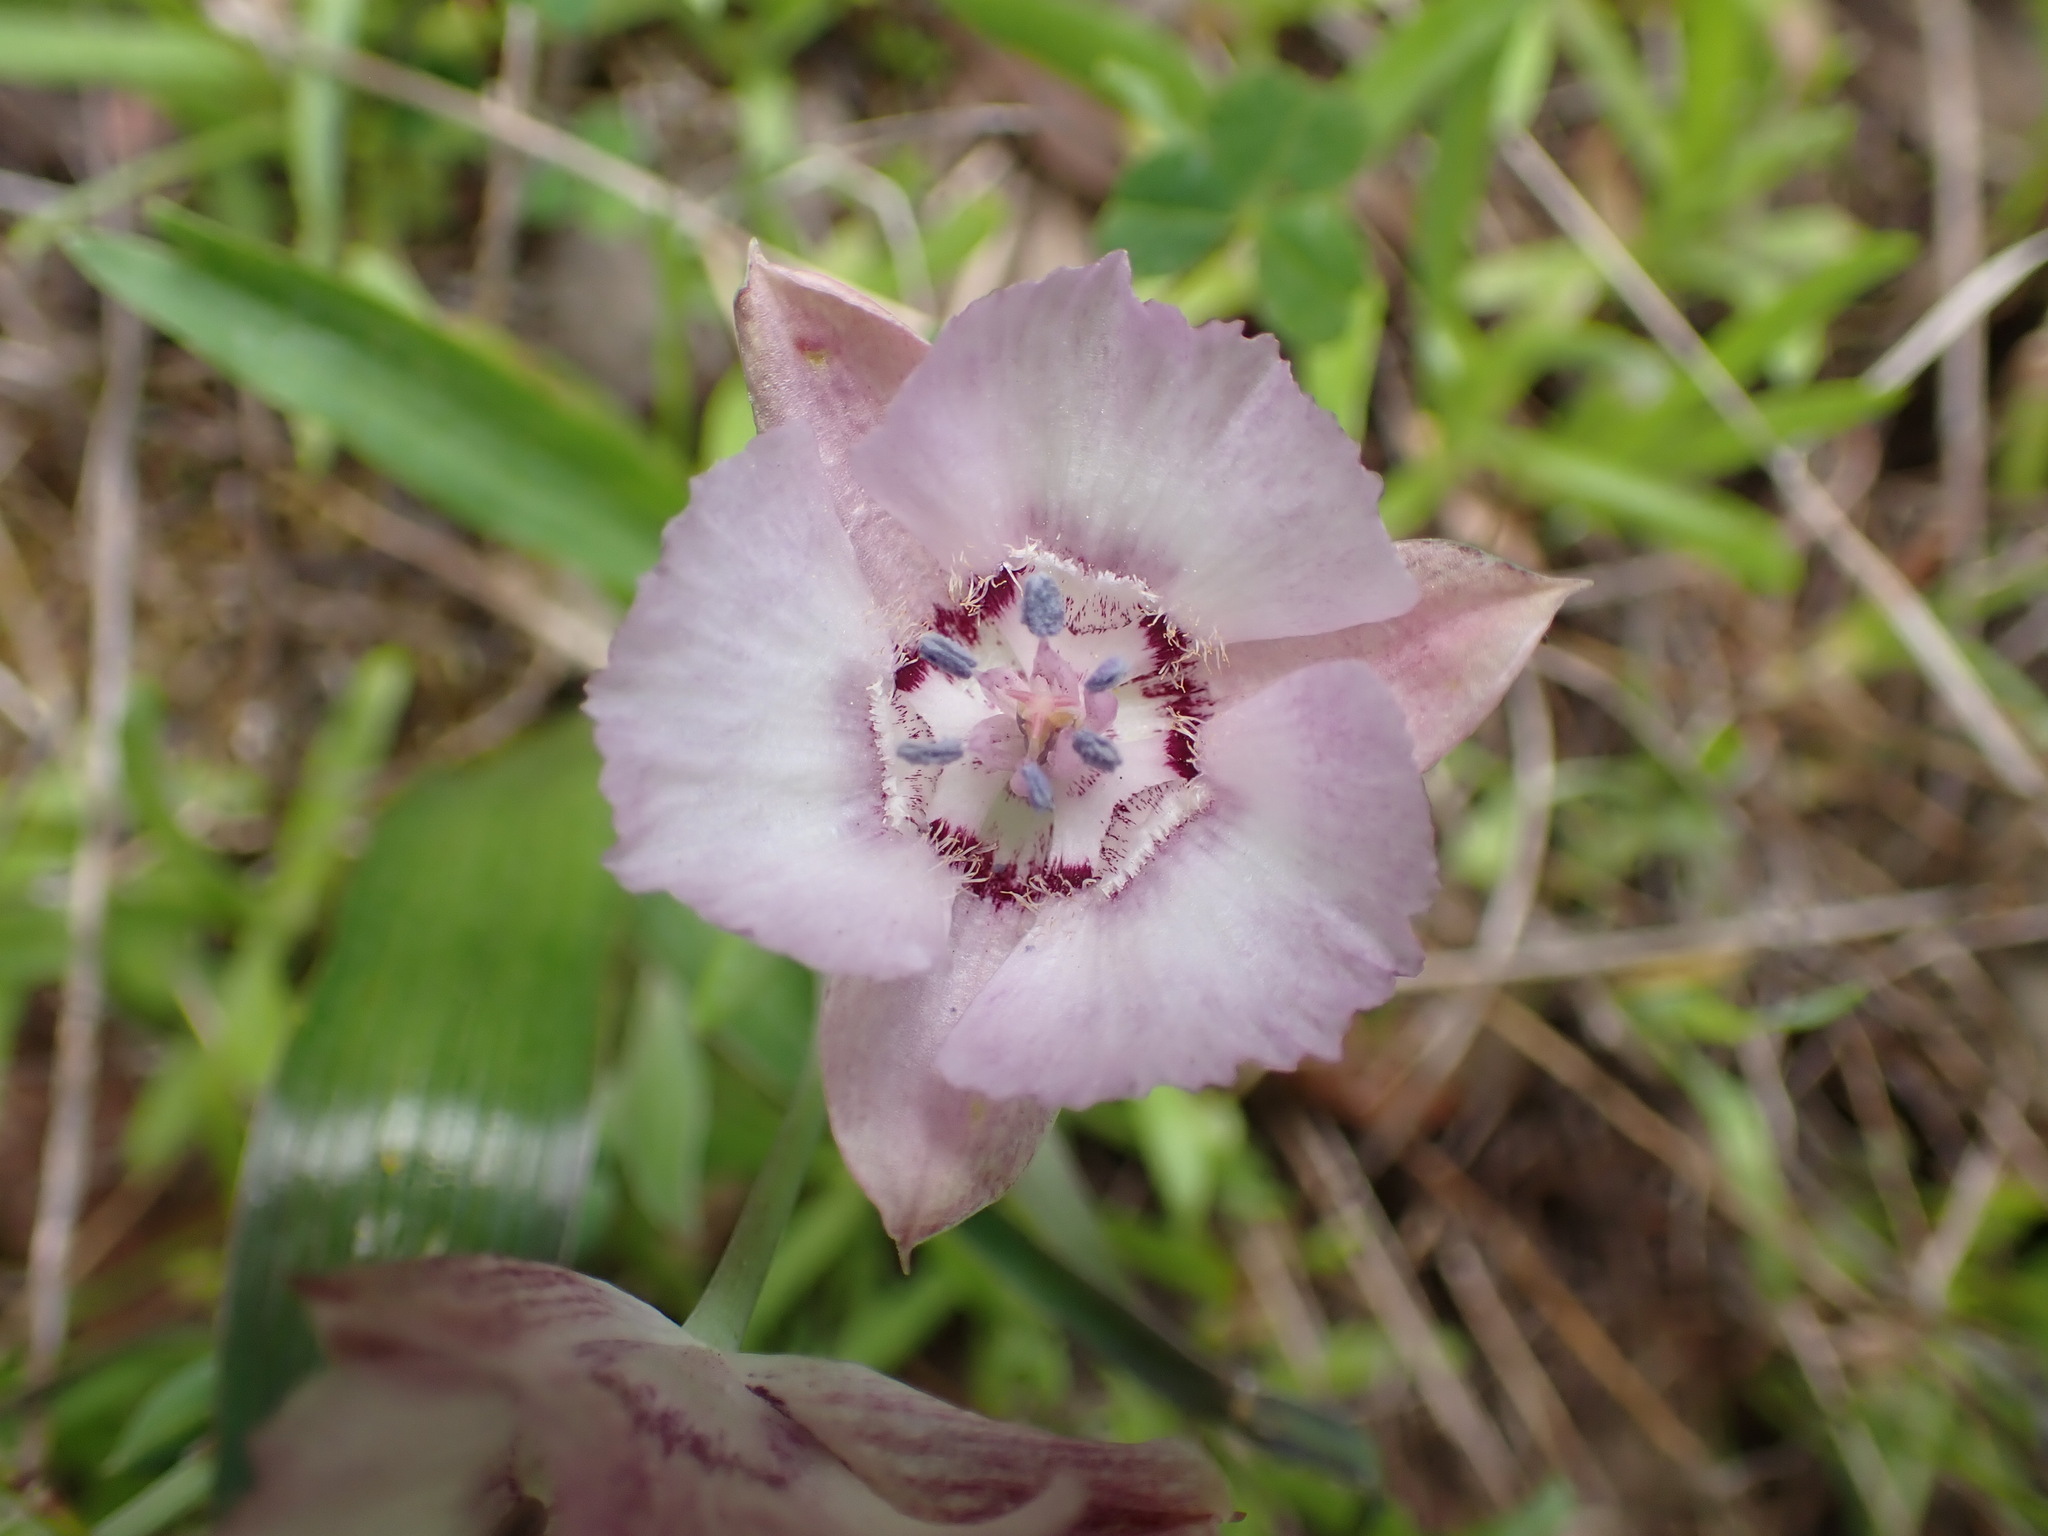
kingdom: Plantae
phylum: Tracheophyta
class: Liliopsida
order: Liliales
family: Liliaceae
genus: Calochortus
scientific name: Calochortus umbellatus
